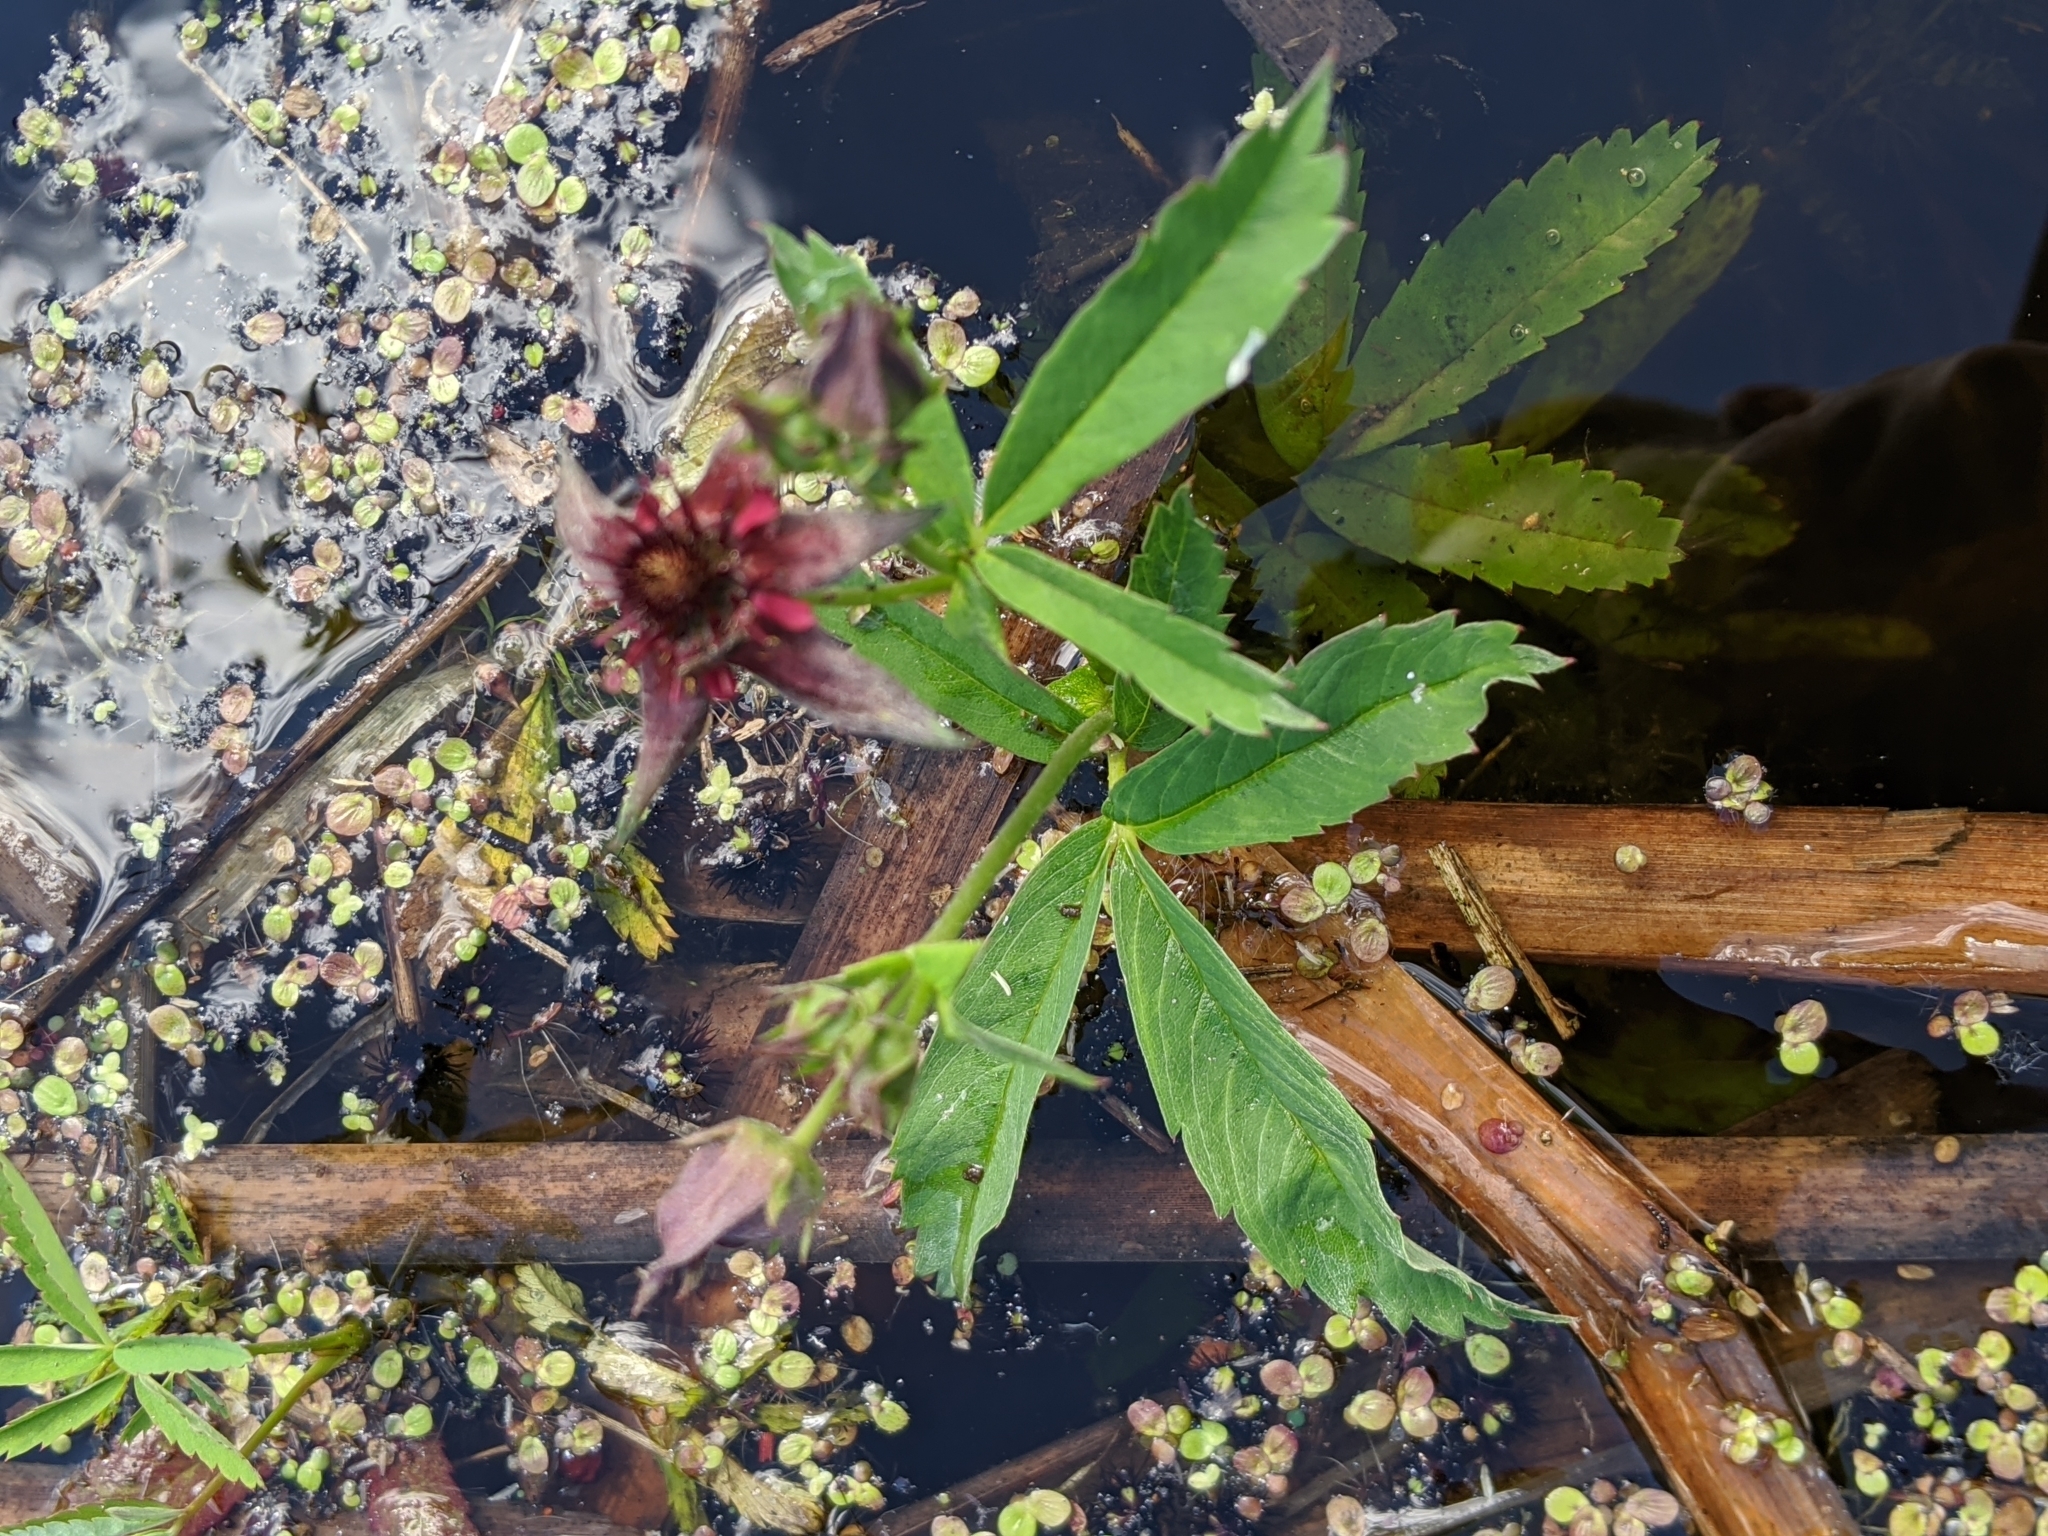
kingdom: Plantae
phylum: Tracheophyta
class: Magnoliopsida
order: Rosales
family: Rosaceae
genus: Comarum
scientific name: Comarum palustre
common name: Marsh cinquefoil
